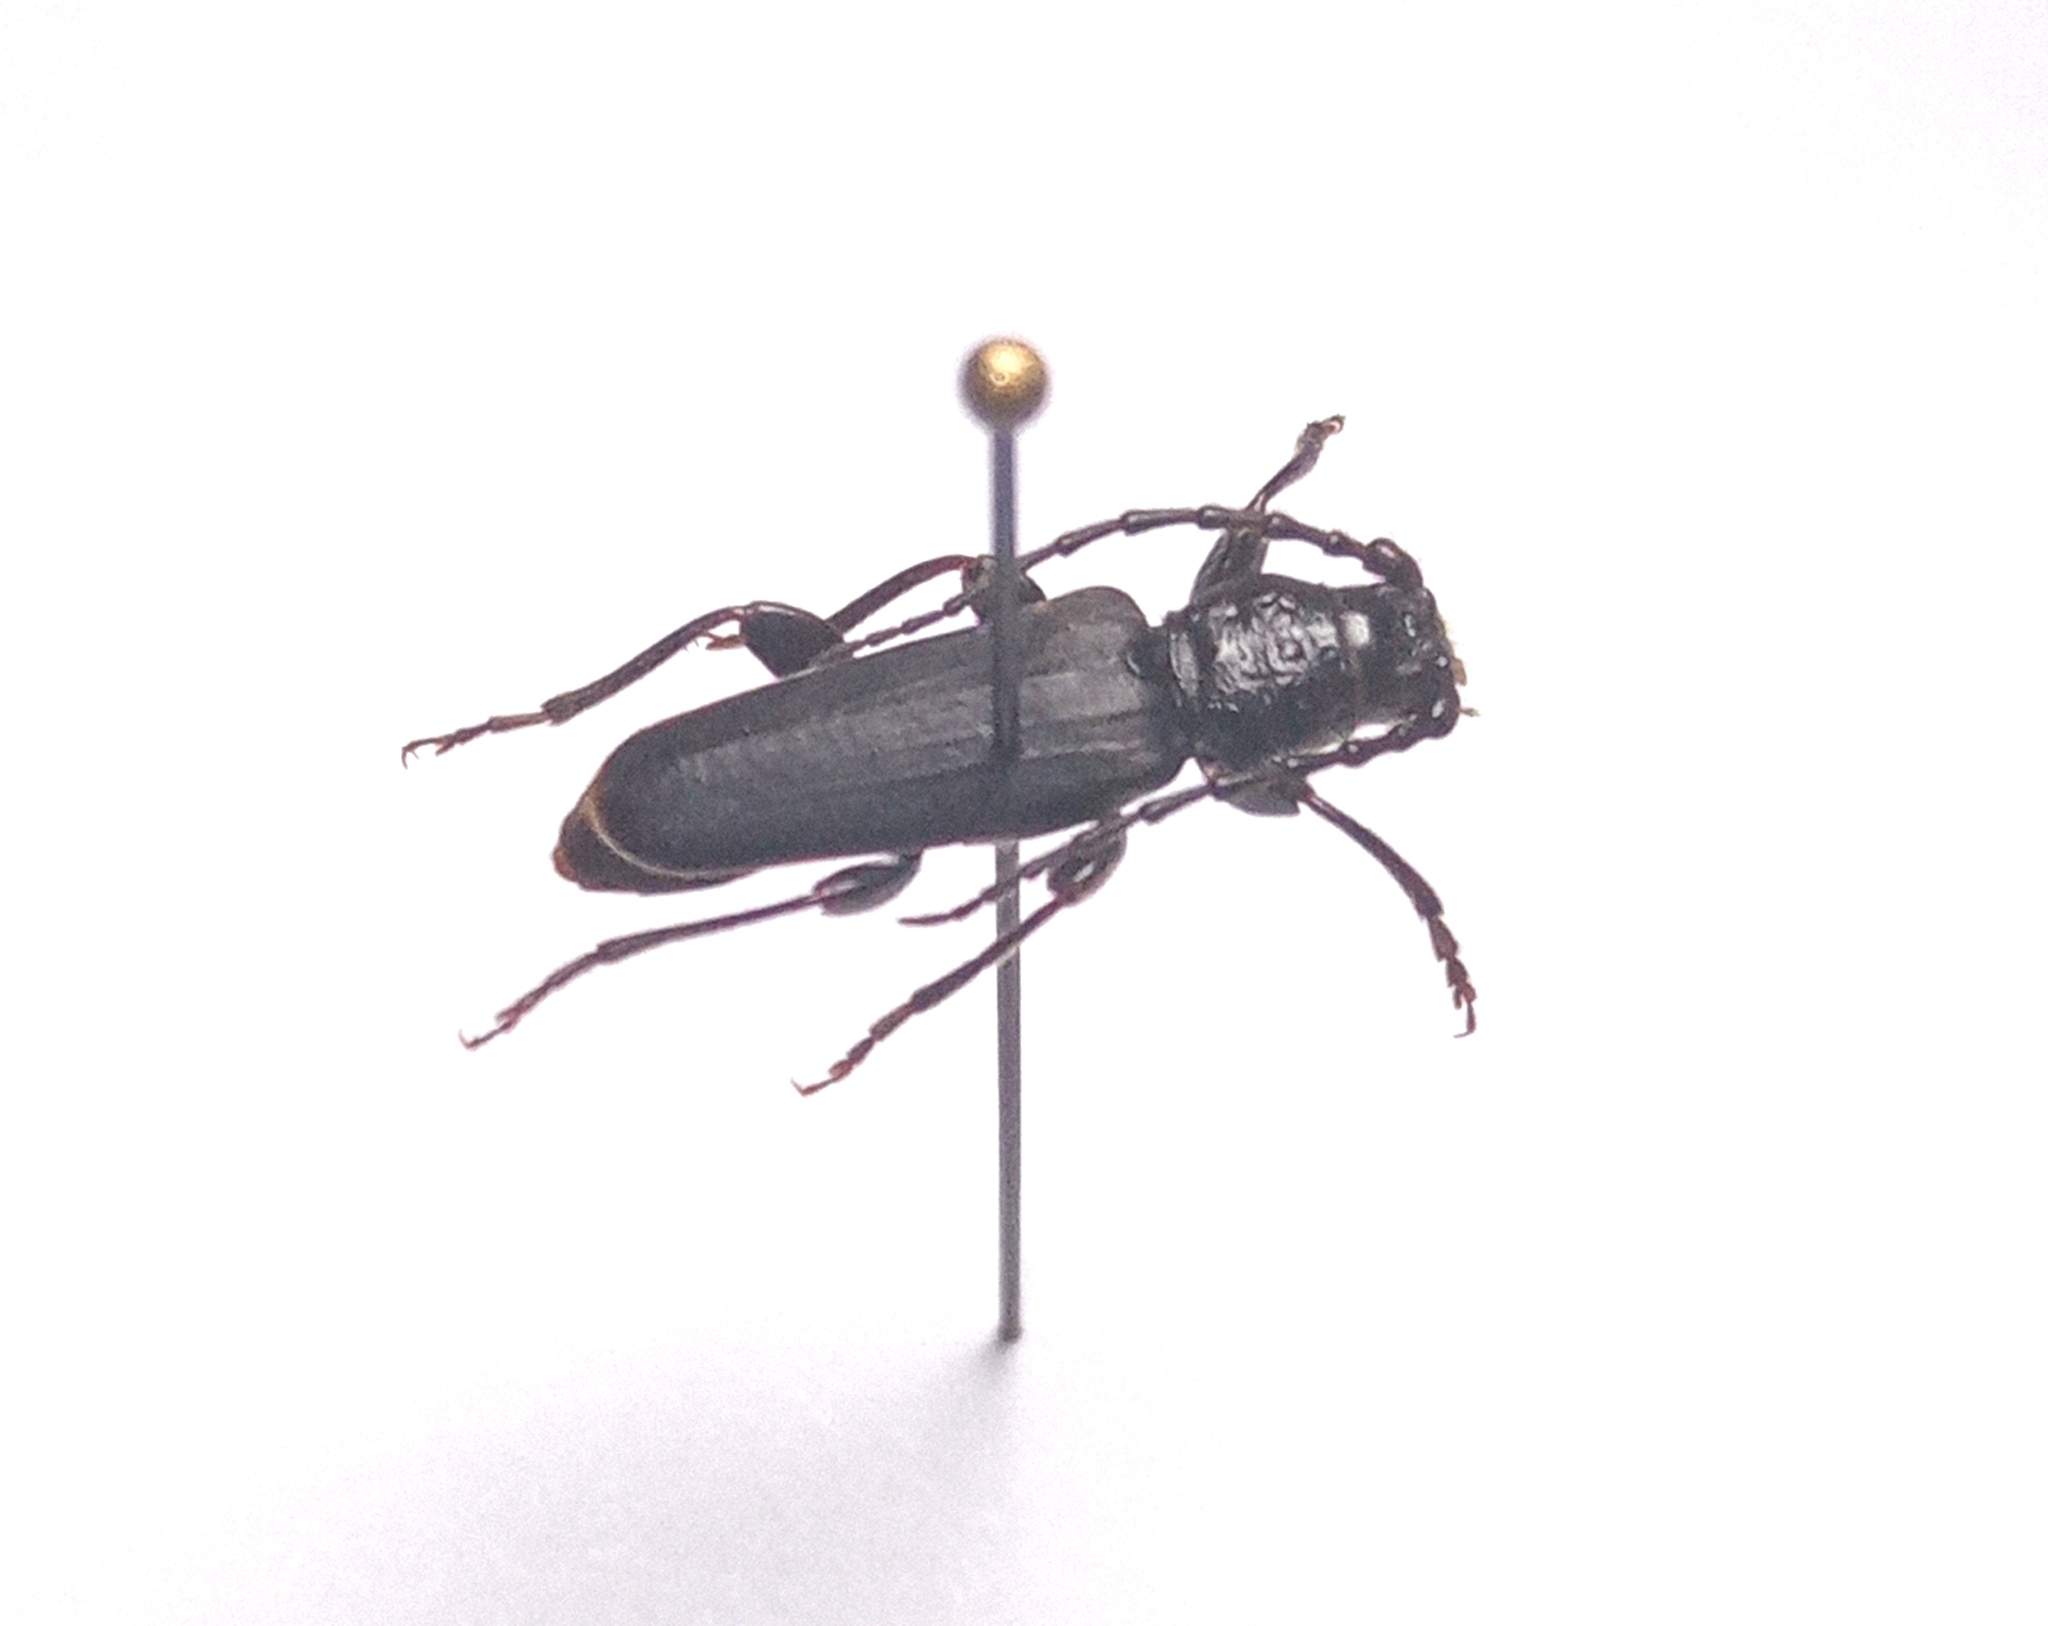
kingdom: Animalia
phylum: Arthropoda
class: Insecta
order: Coleoptera
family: Cerambycidae
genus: Tetropium
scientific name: Tetropium castaneum
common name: Long-horned beetle
